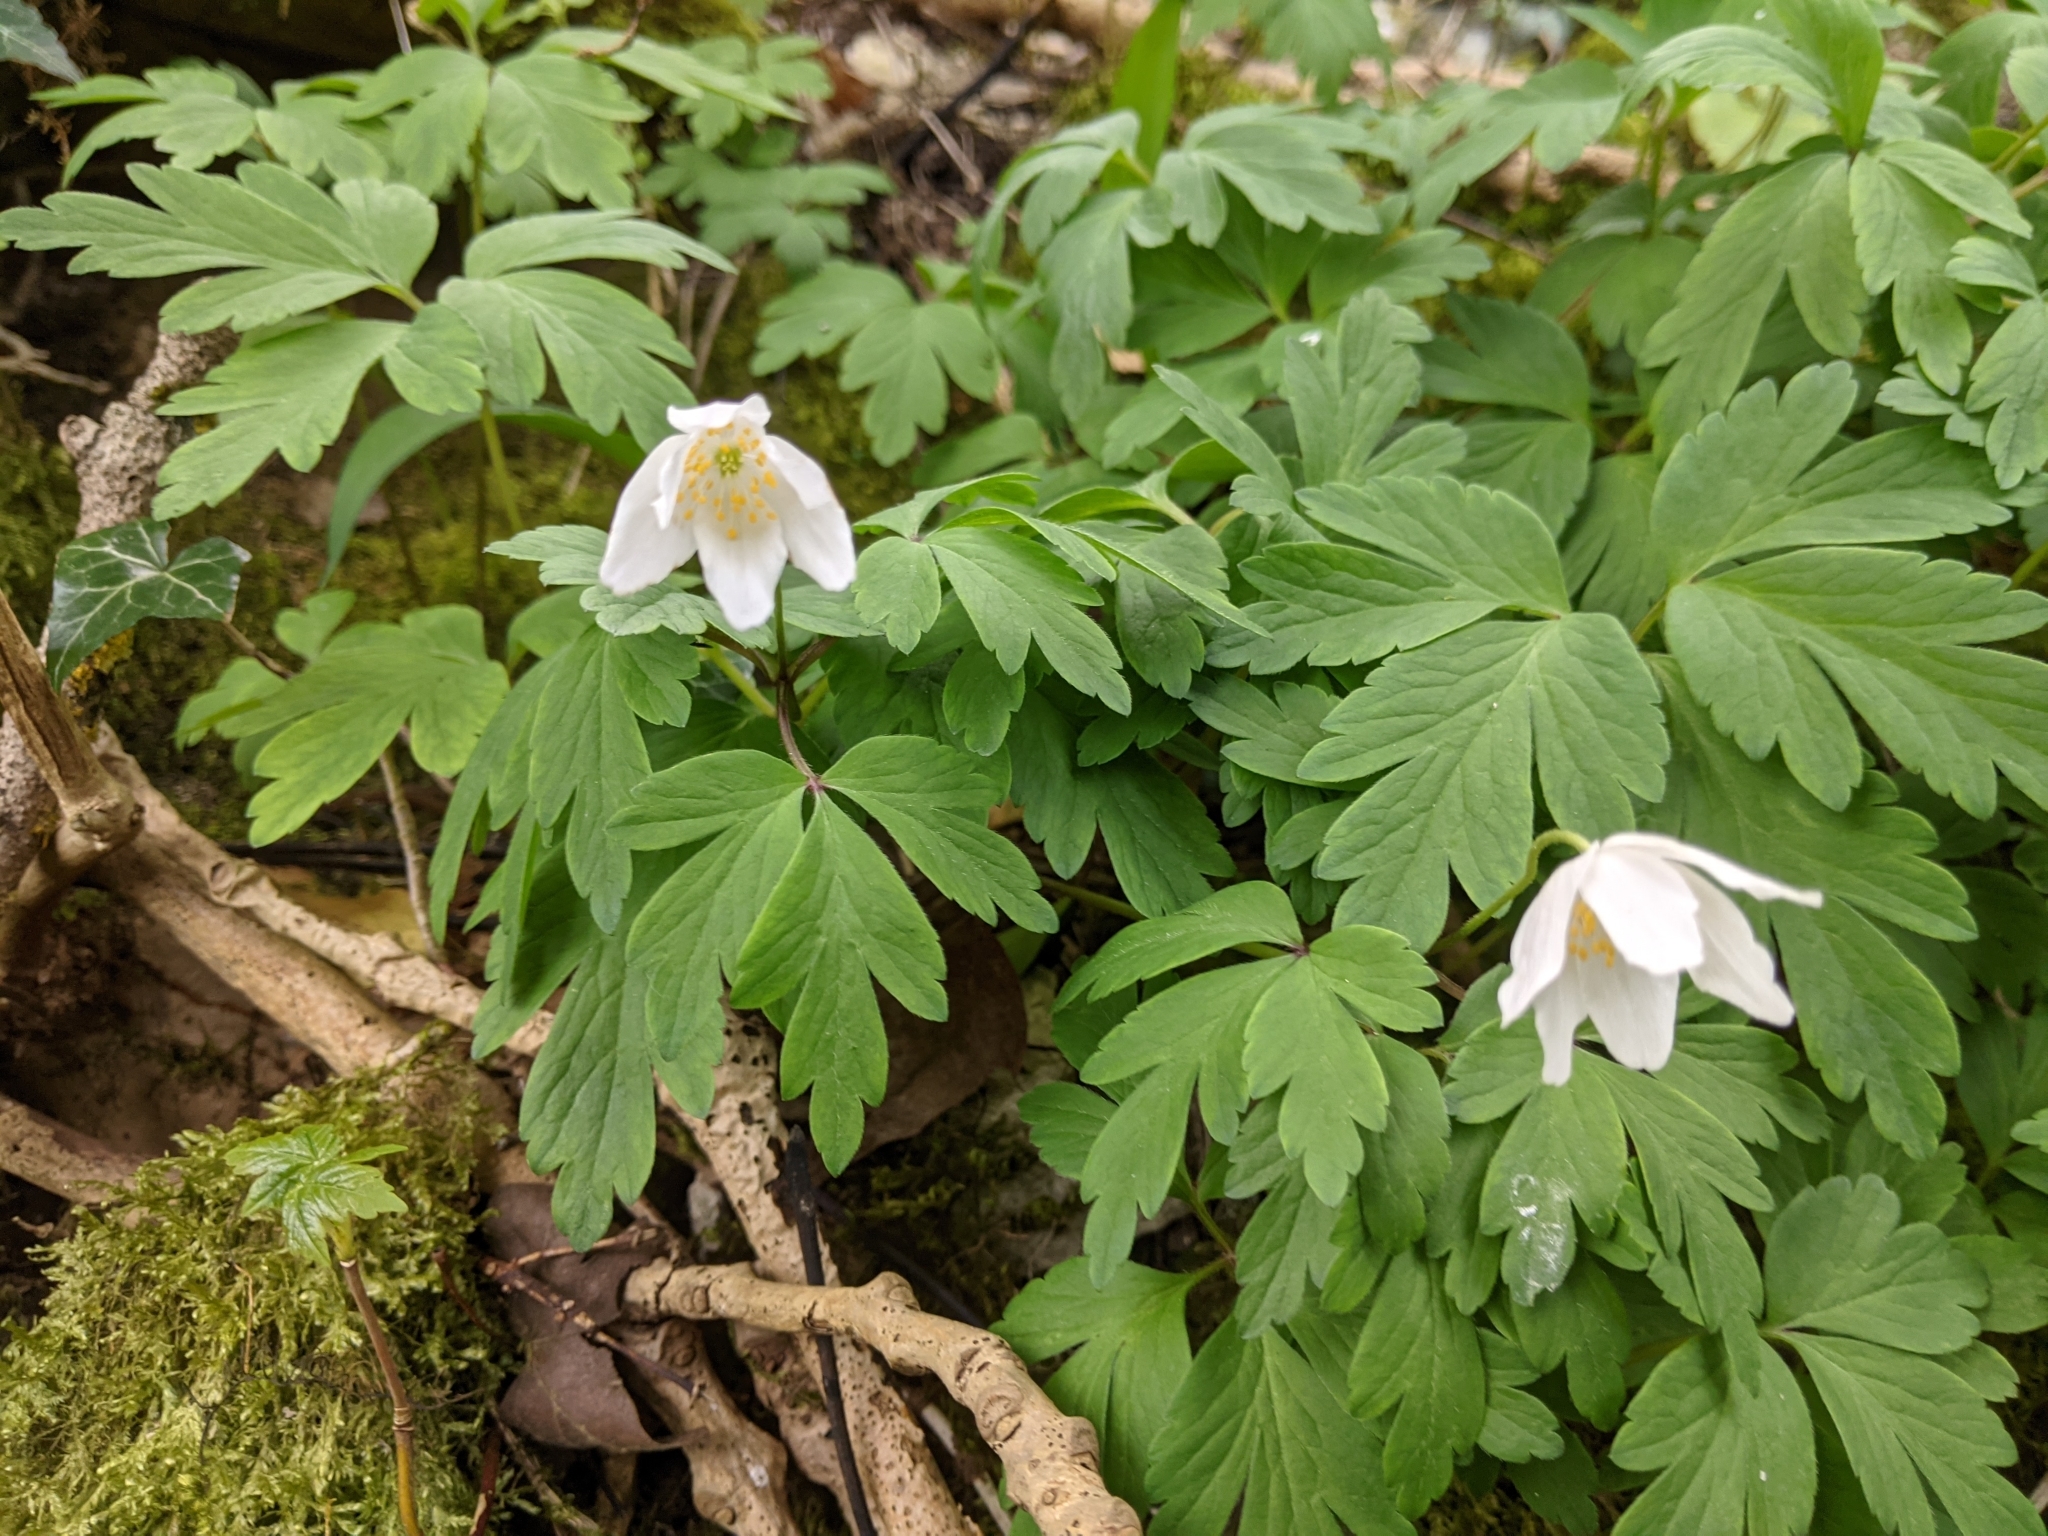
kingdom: Plantae
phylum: Tracheophyta
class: Magnoliopsida
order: Ranunculales
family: Ranunculaceae
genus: Anemone
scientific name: Anemone nemorosa
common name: Wood anemone
